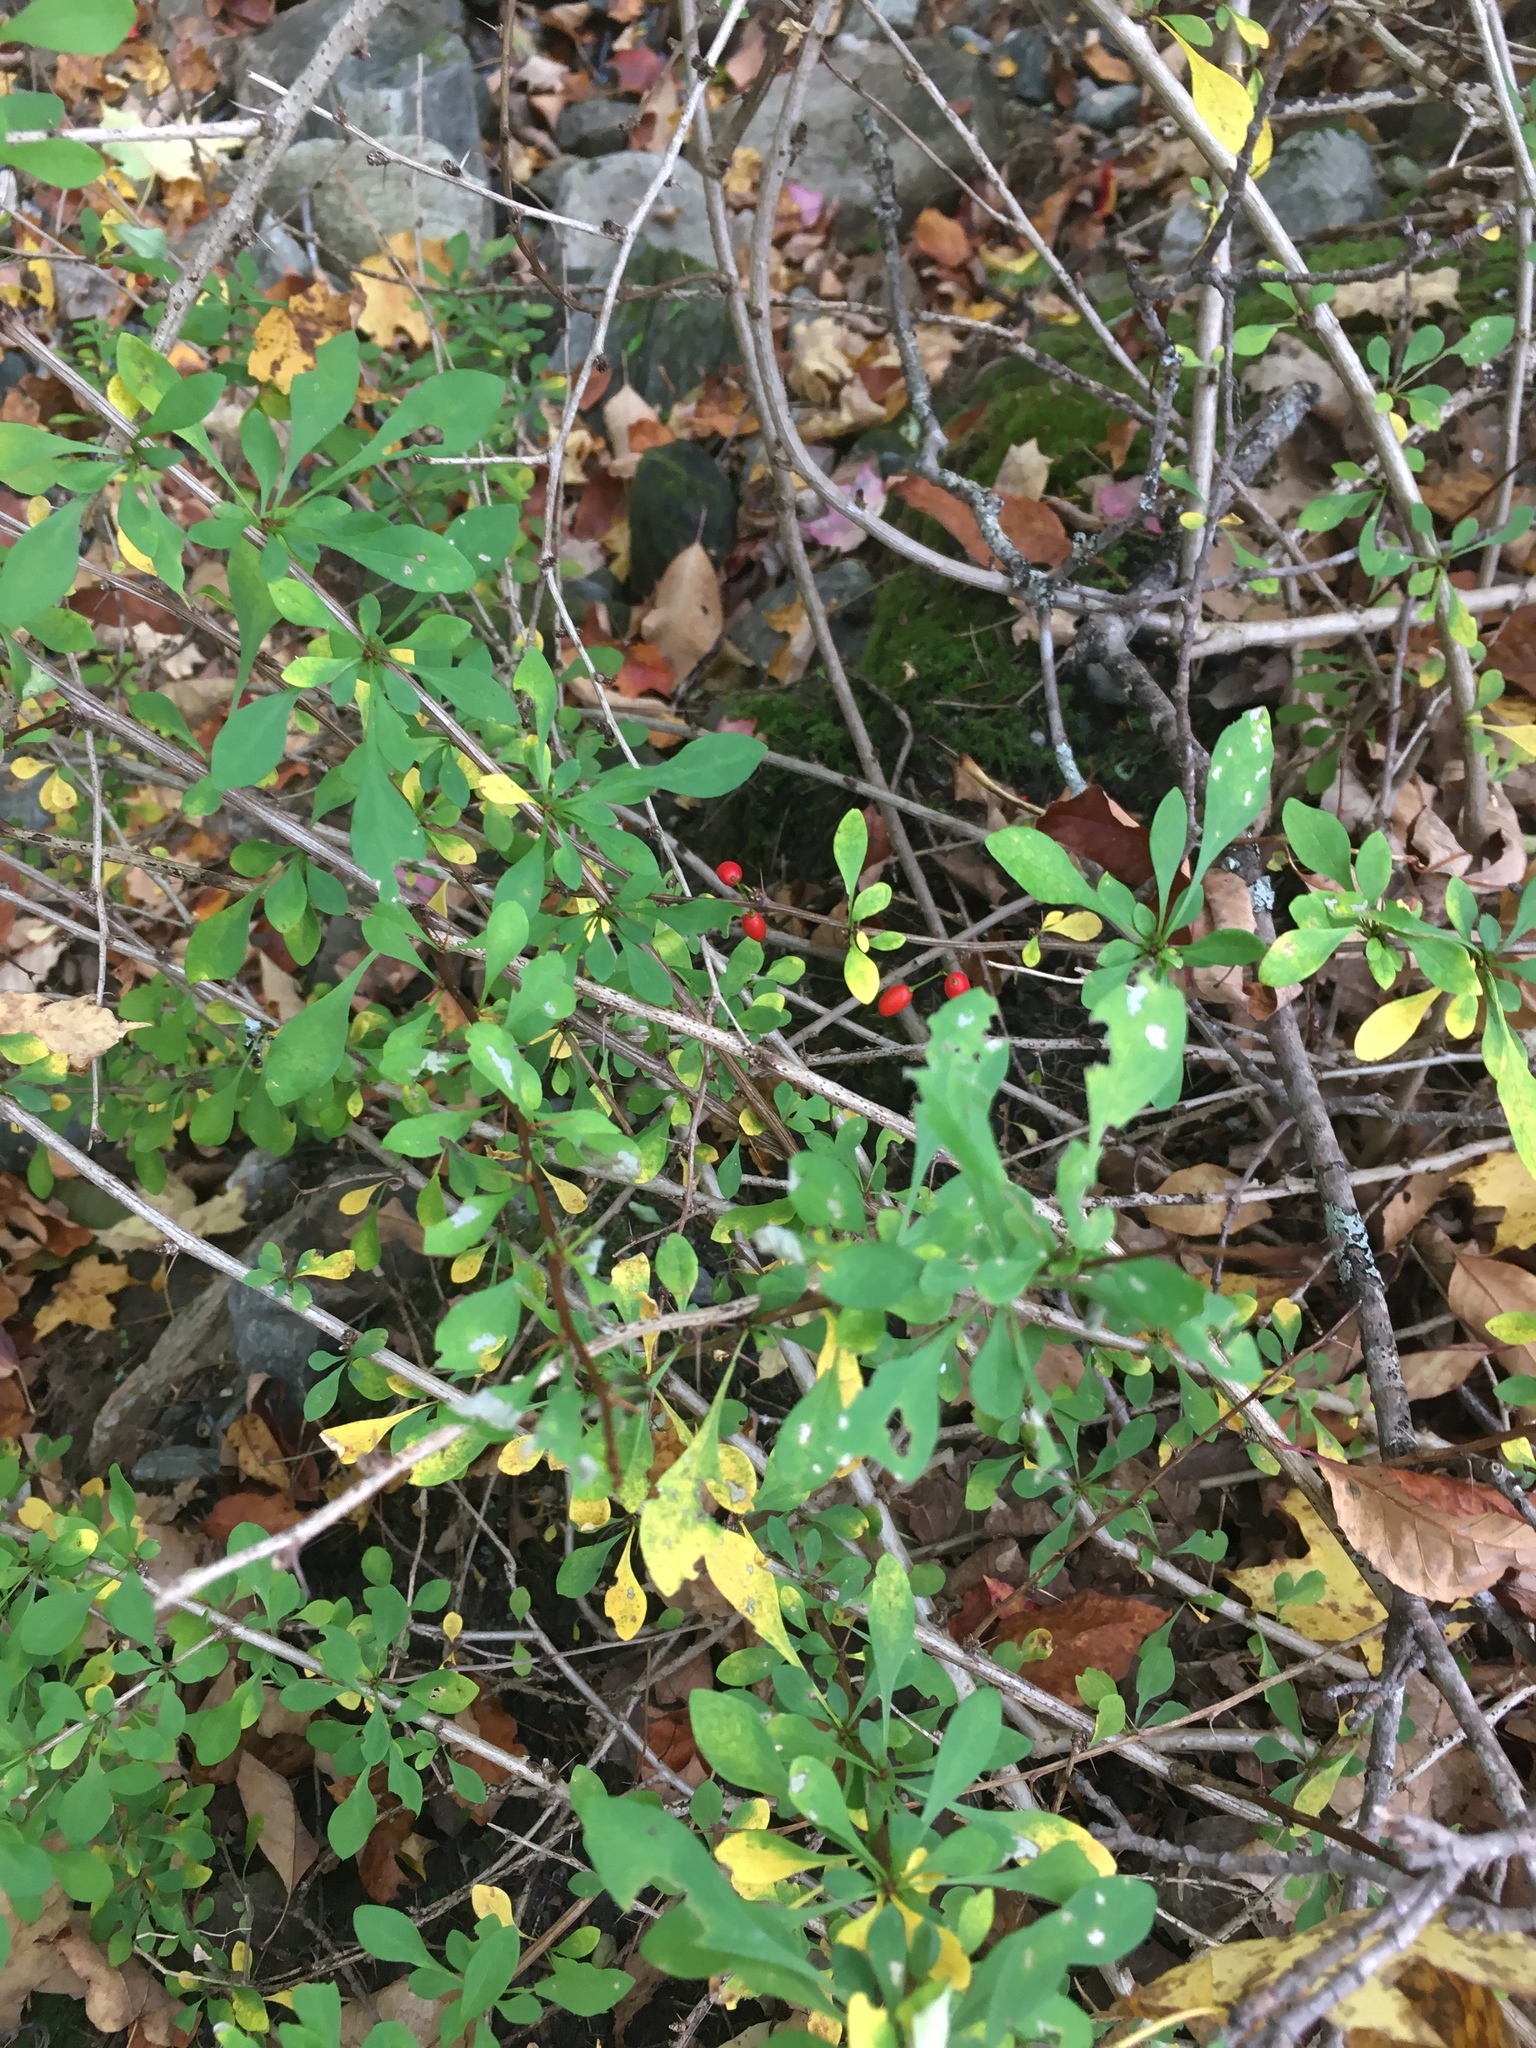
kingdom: Plantae
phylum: Tracheophyta
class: Magnoliopsida
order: Ranunculales
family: Berberidaceae
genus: Berberis
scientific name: Berberis thunbergii
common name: Japanese barberry
